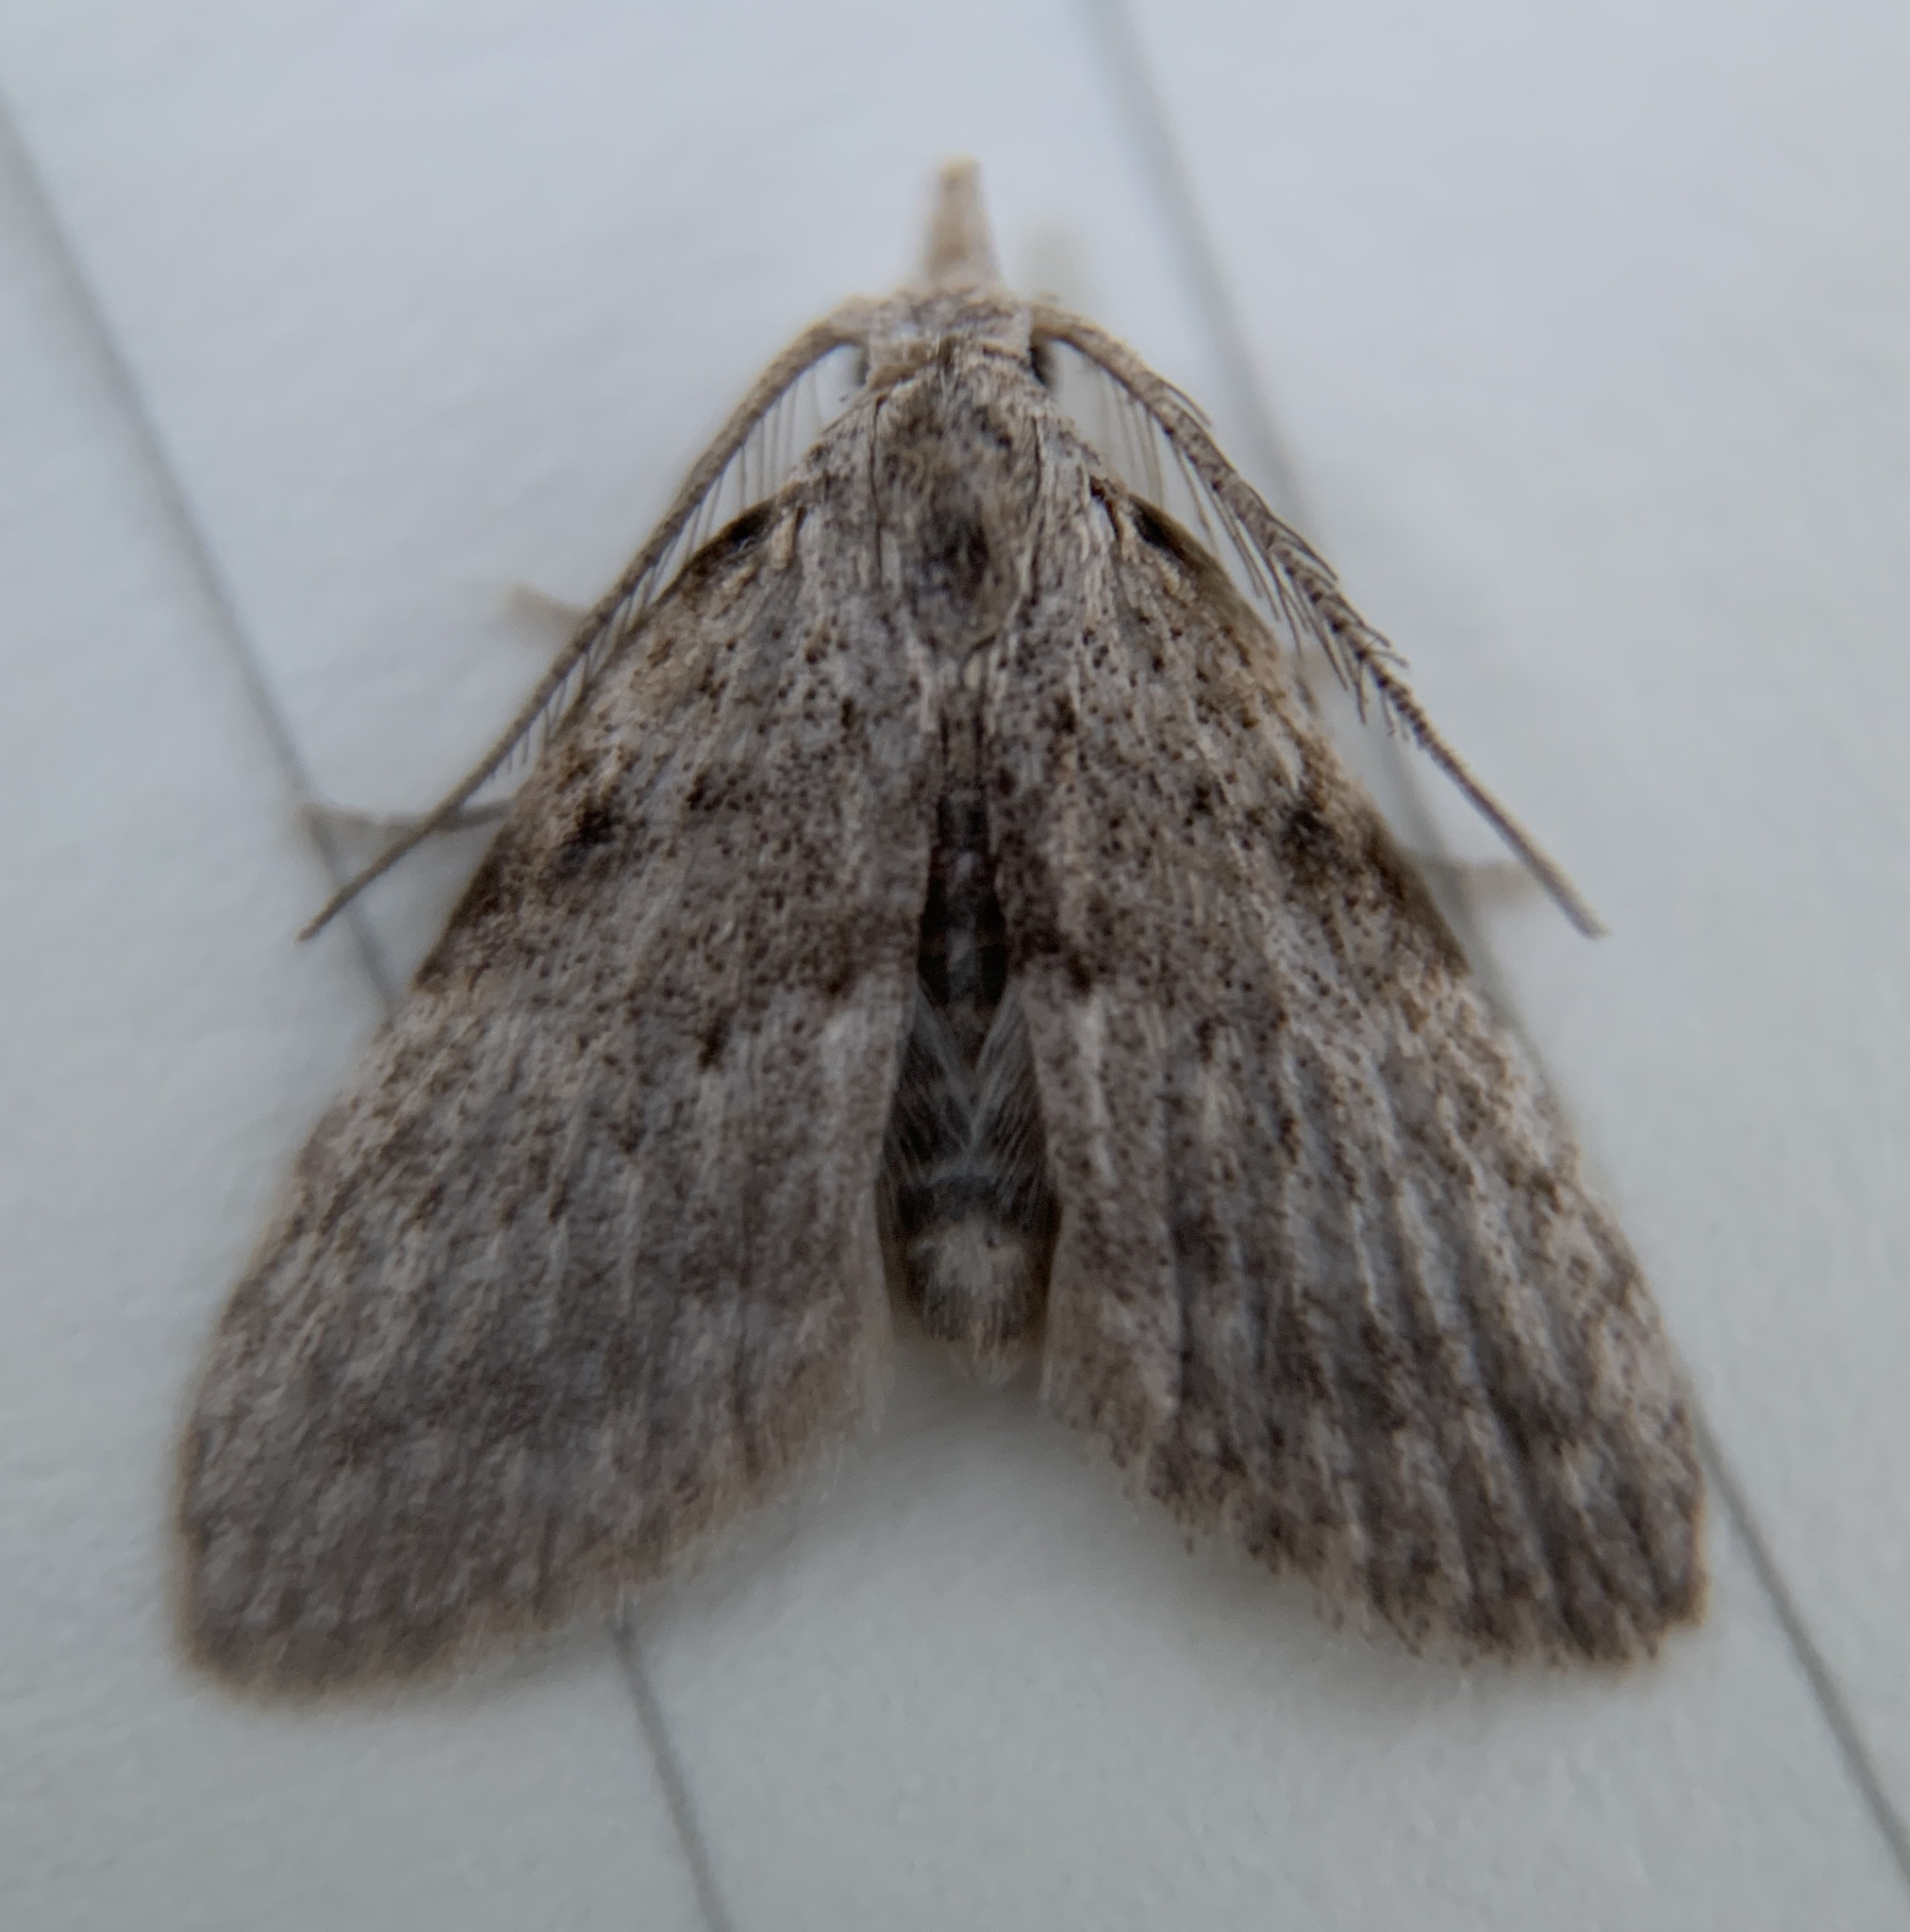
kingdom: Animalia
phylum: Arthropoda
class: Insecta
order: Lepidoptera
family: Nolidae
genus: Nola
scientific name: Nola lagunculariae
